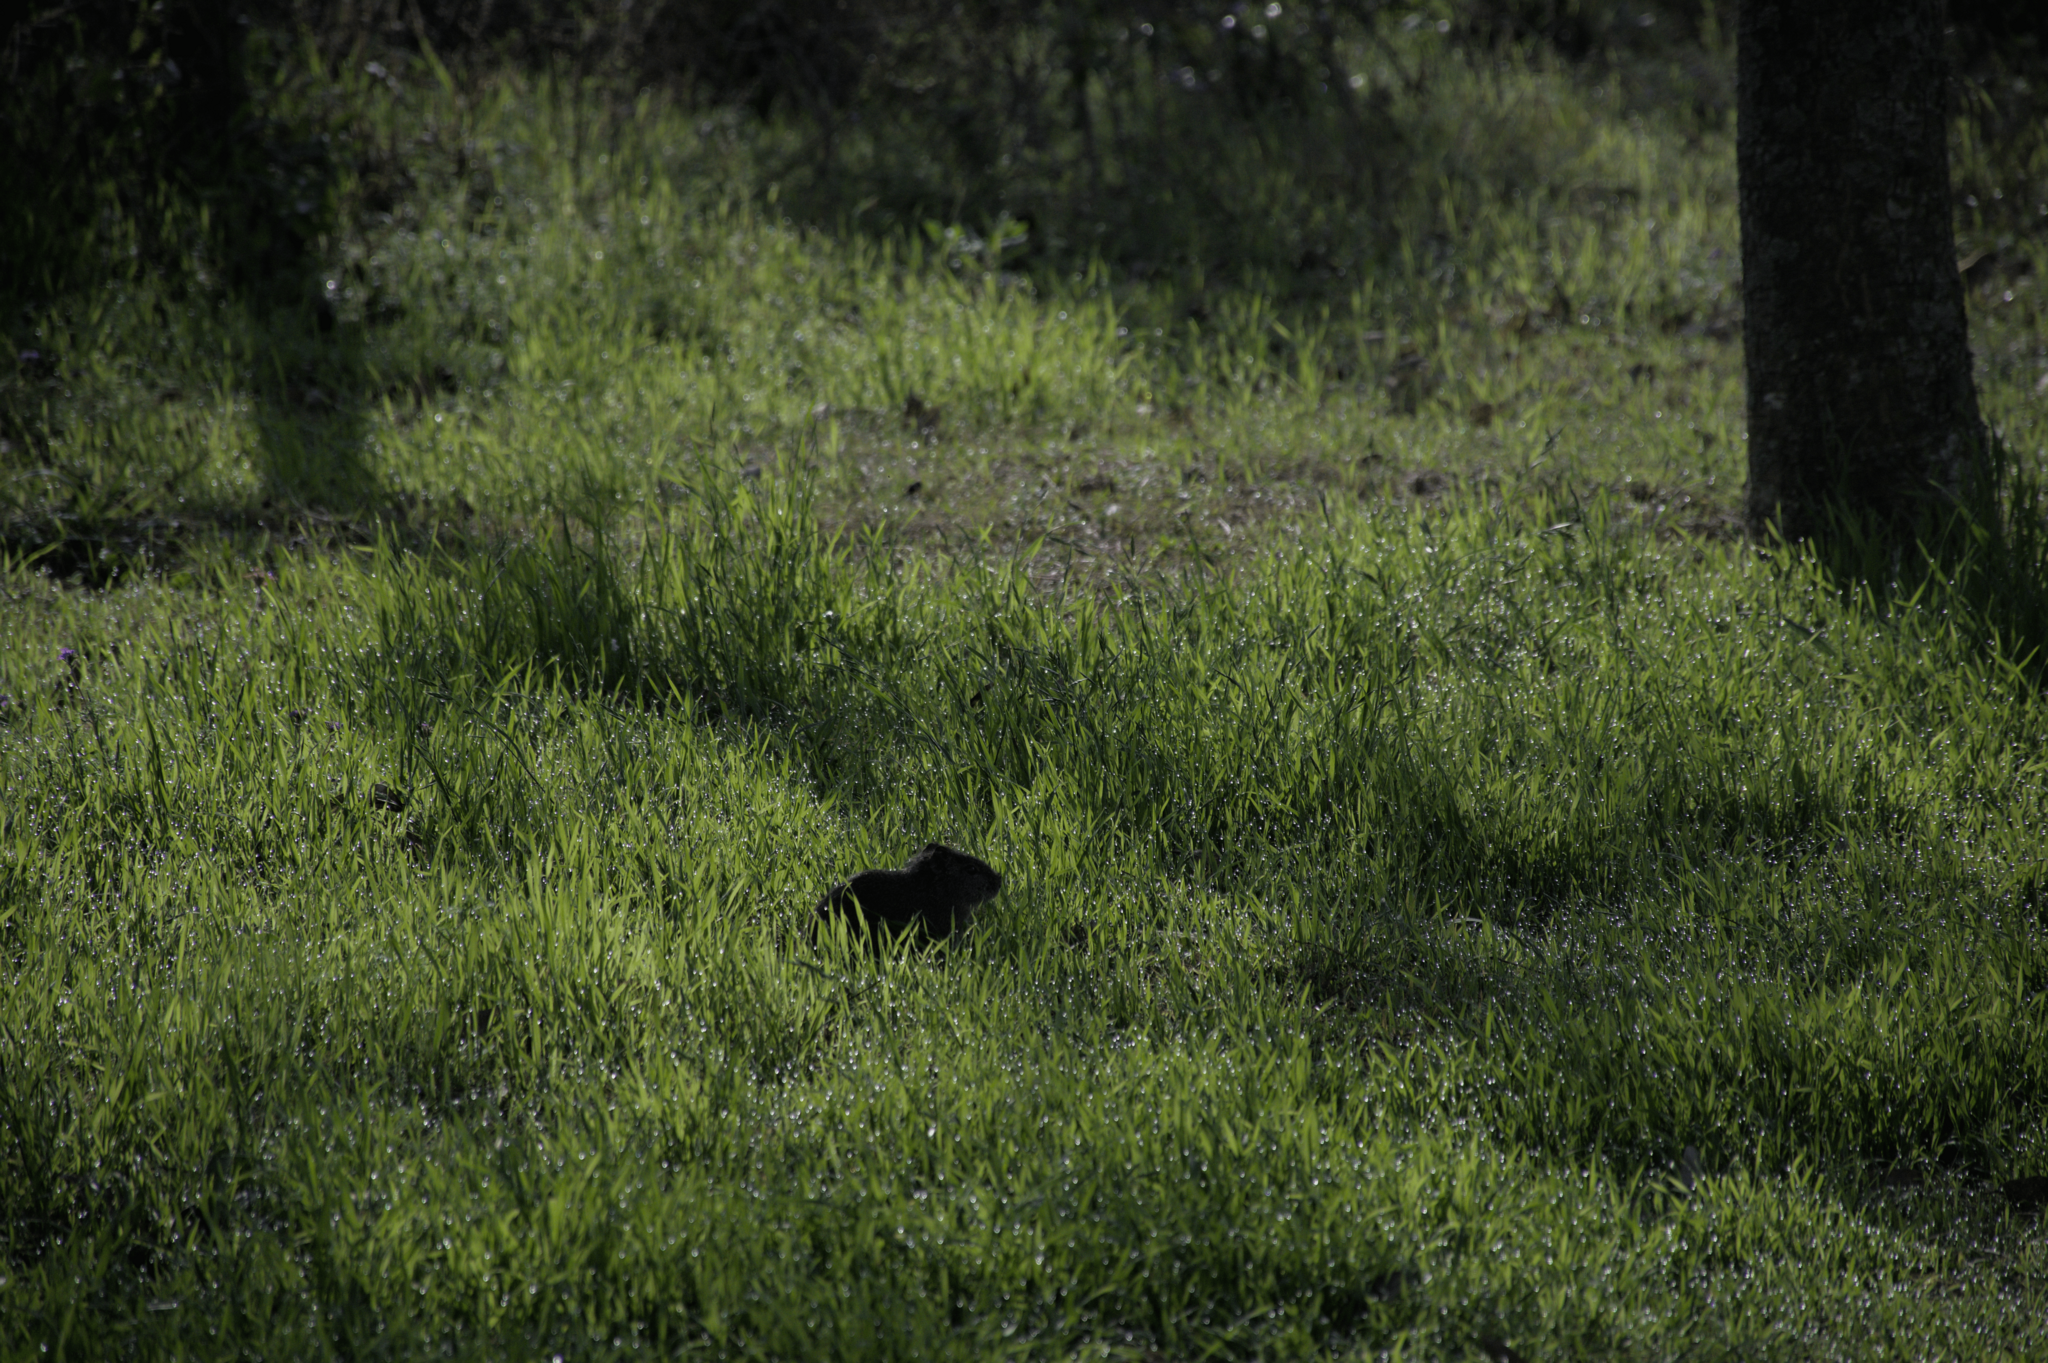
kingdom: Animalia
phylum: Chordata
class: Mammalia
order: Rodentia
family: Caviidae
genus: Cavia
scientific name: Cavia aperea
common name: Brazilian guinea pig
